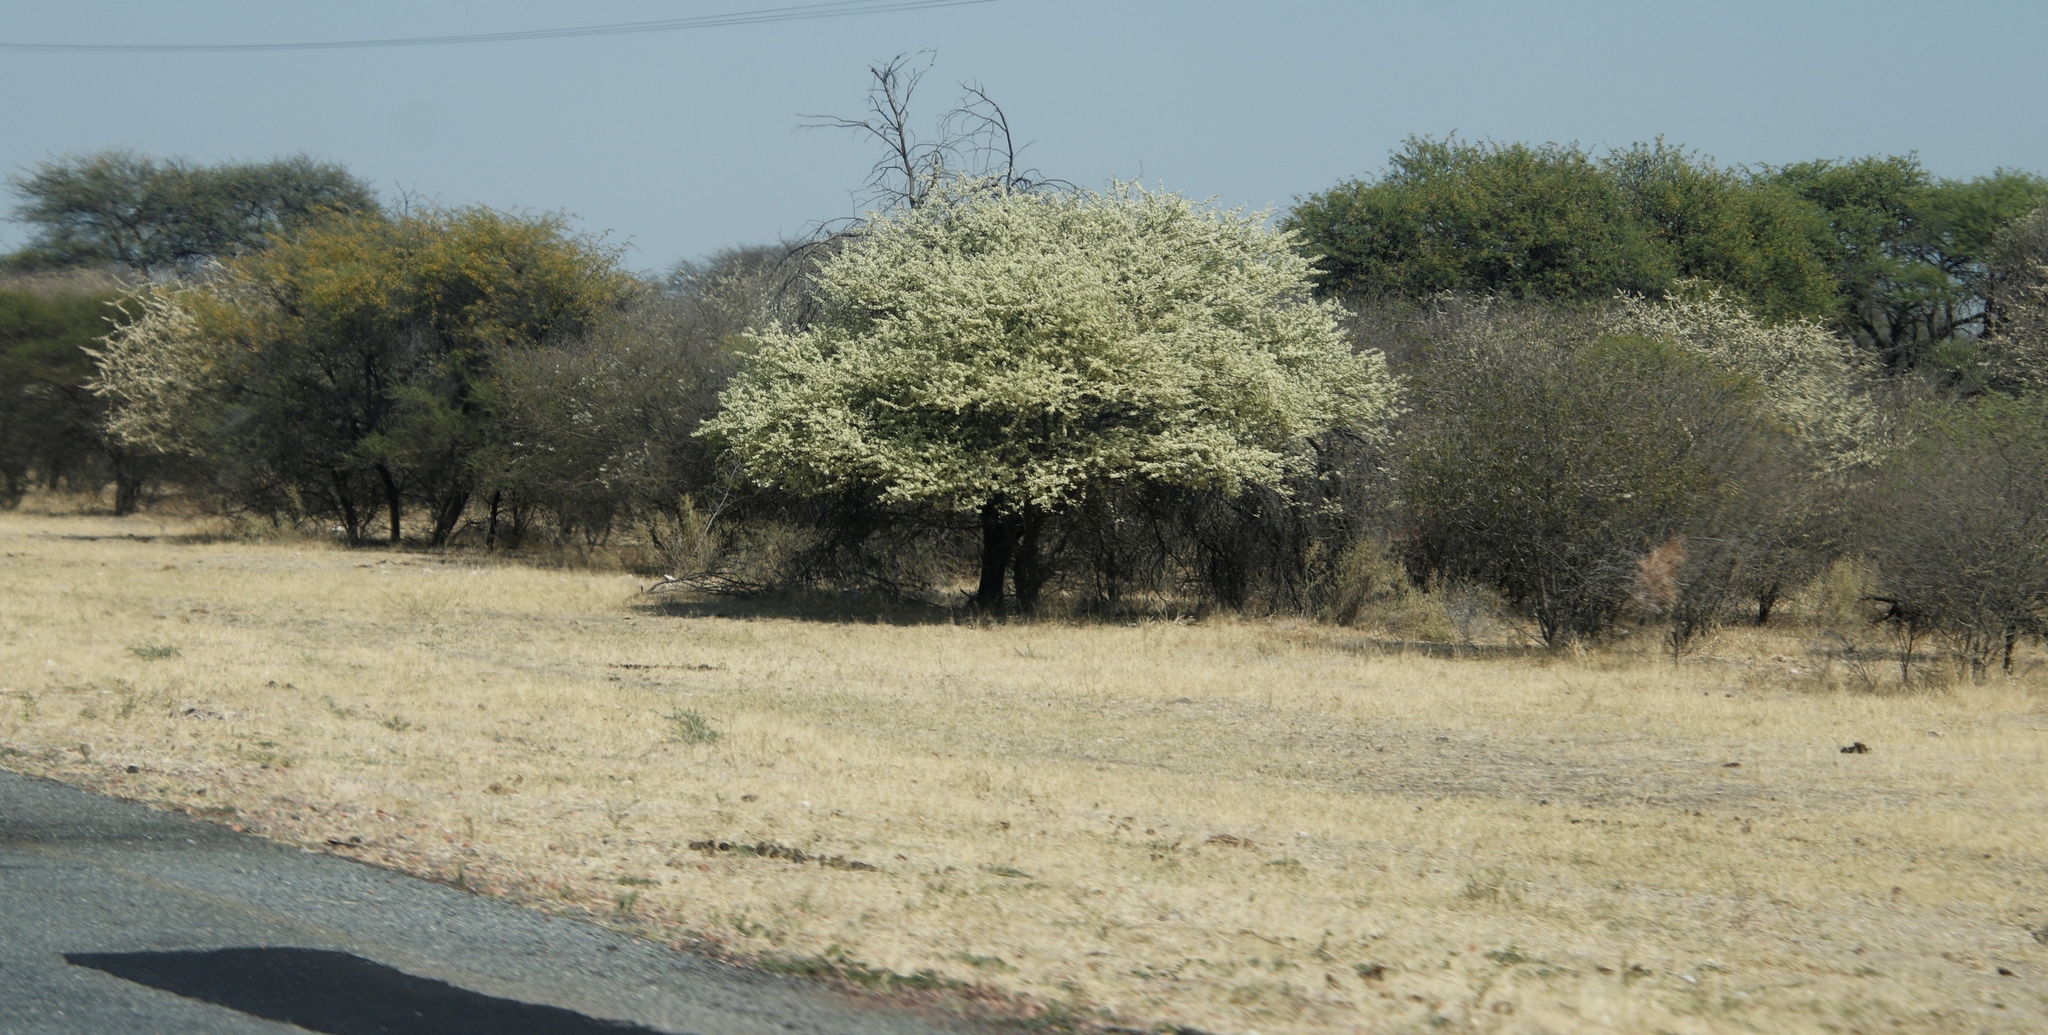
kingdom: Plantae
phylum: Tracheophyta
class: Magnoliopsida
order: Fabales
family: Fabaceae
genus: Senegalia
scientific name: Senegalia mellifera
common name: Hookthorn
